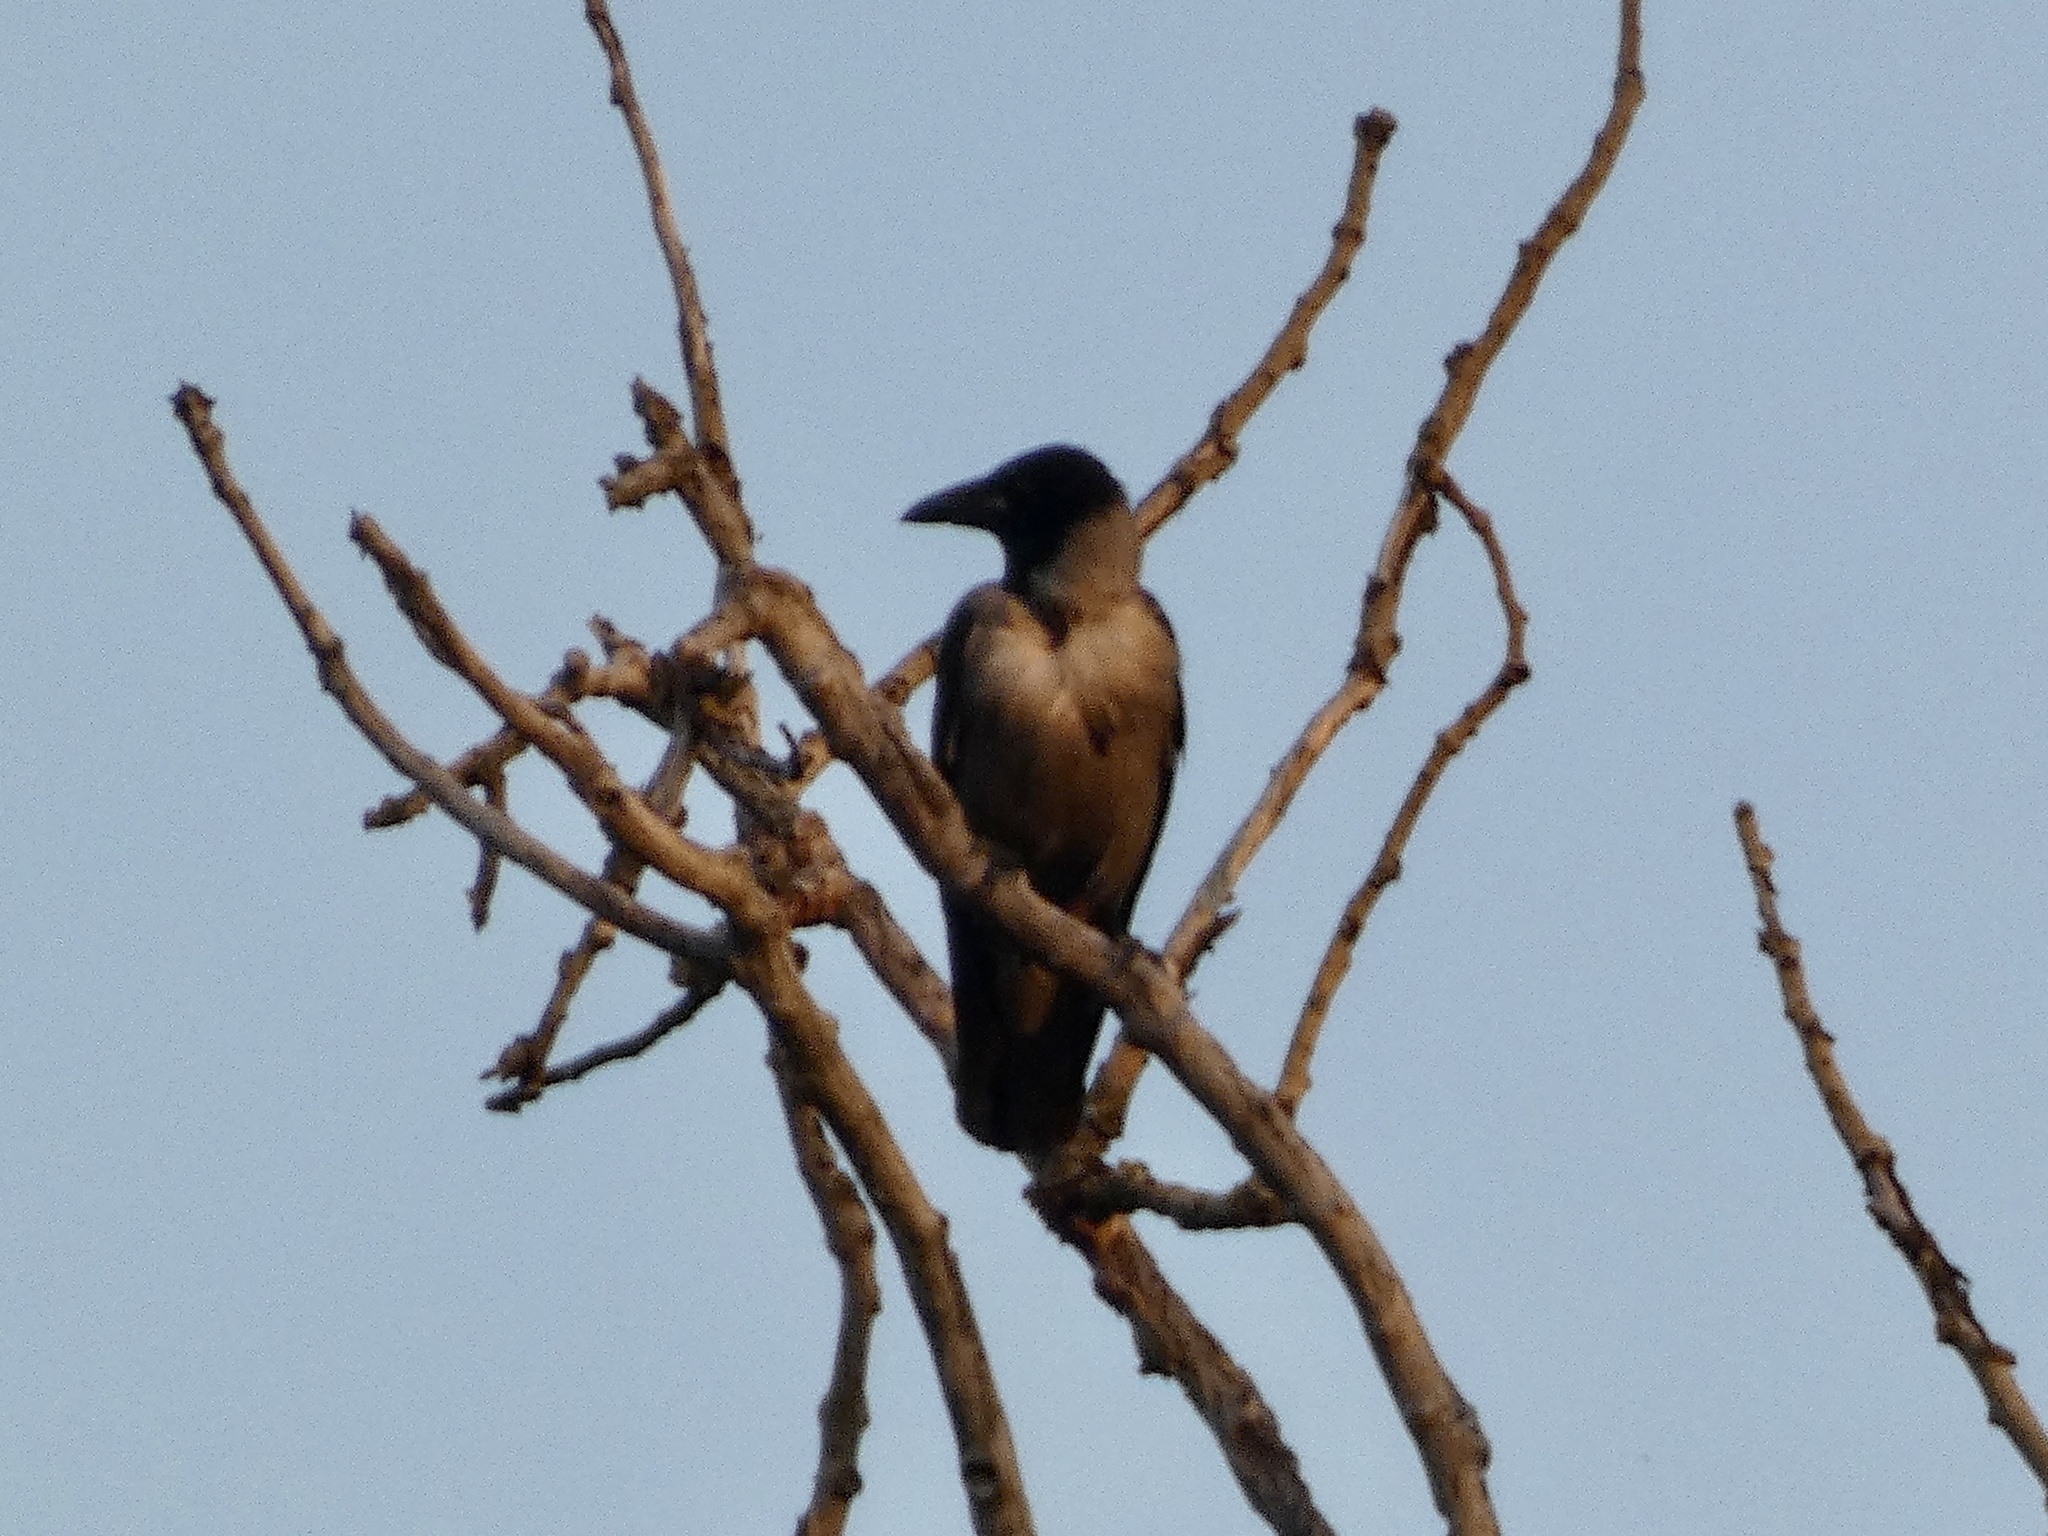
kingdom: Animalia
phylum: Chordata
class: Aves
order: Passeriformes
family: Corvidae
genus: Corvus
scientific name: Corvus cornix
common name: Hooded crow
